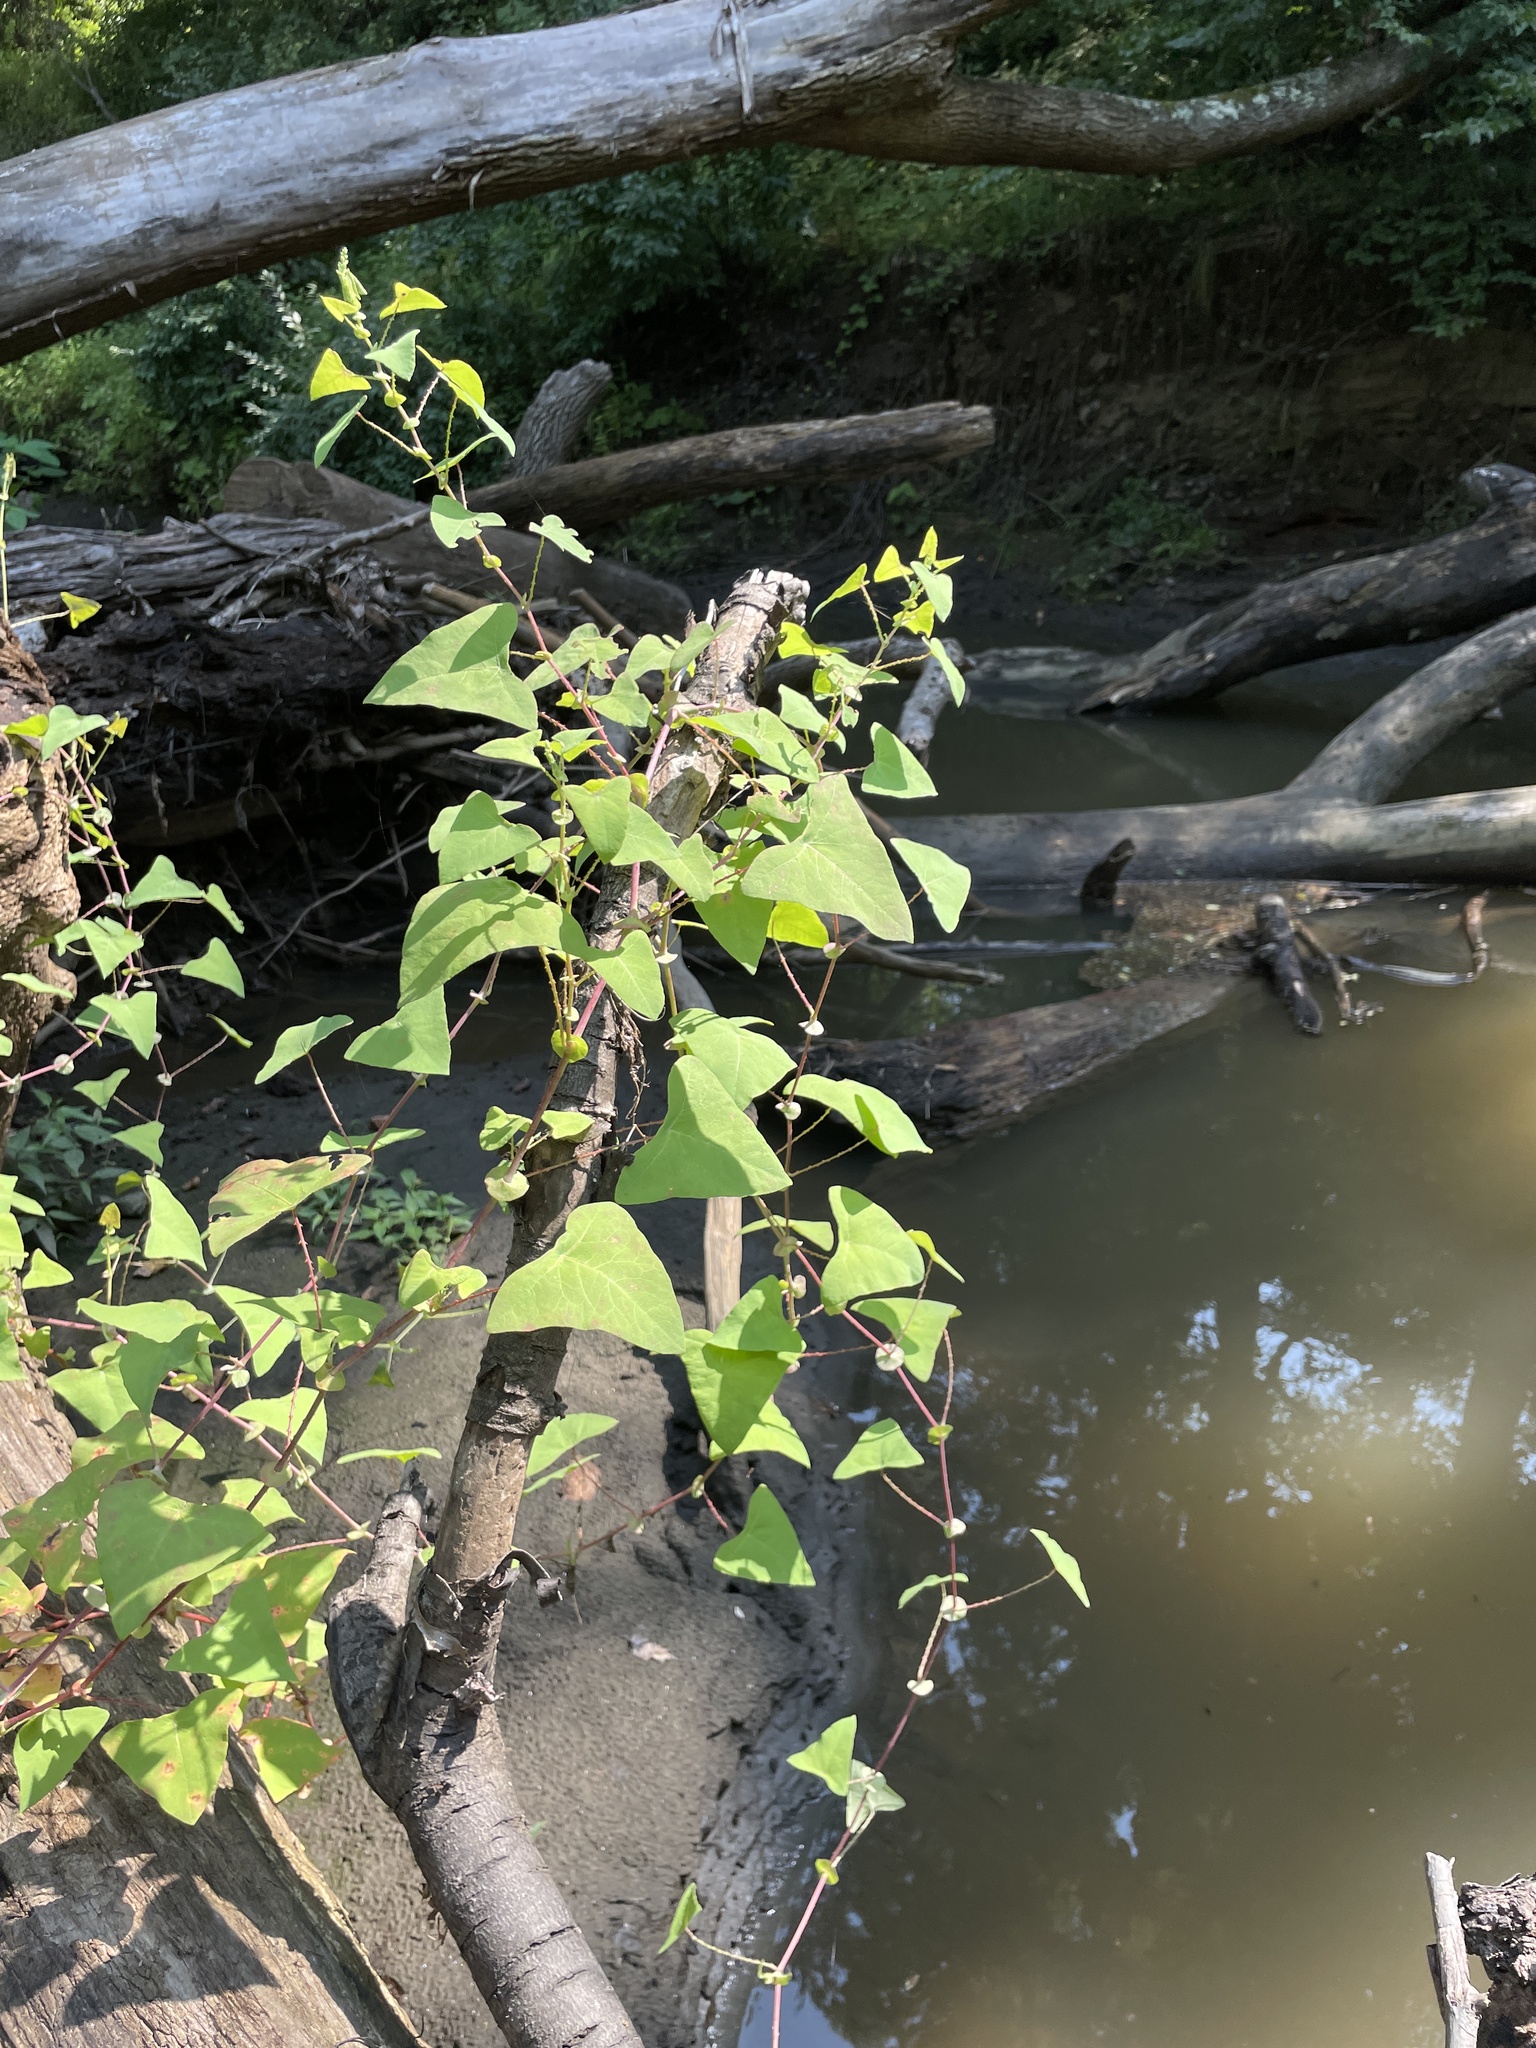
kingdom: Plantae
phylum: Tracheophyta
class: Magnoliopsida
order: Caryophyllales
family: Polygonaceae
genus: Persicaria
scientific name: Persicaria perfoliata
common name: Asiatic tearthumb
